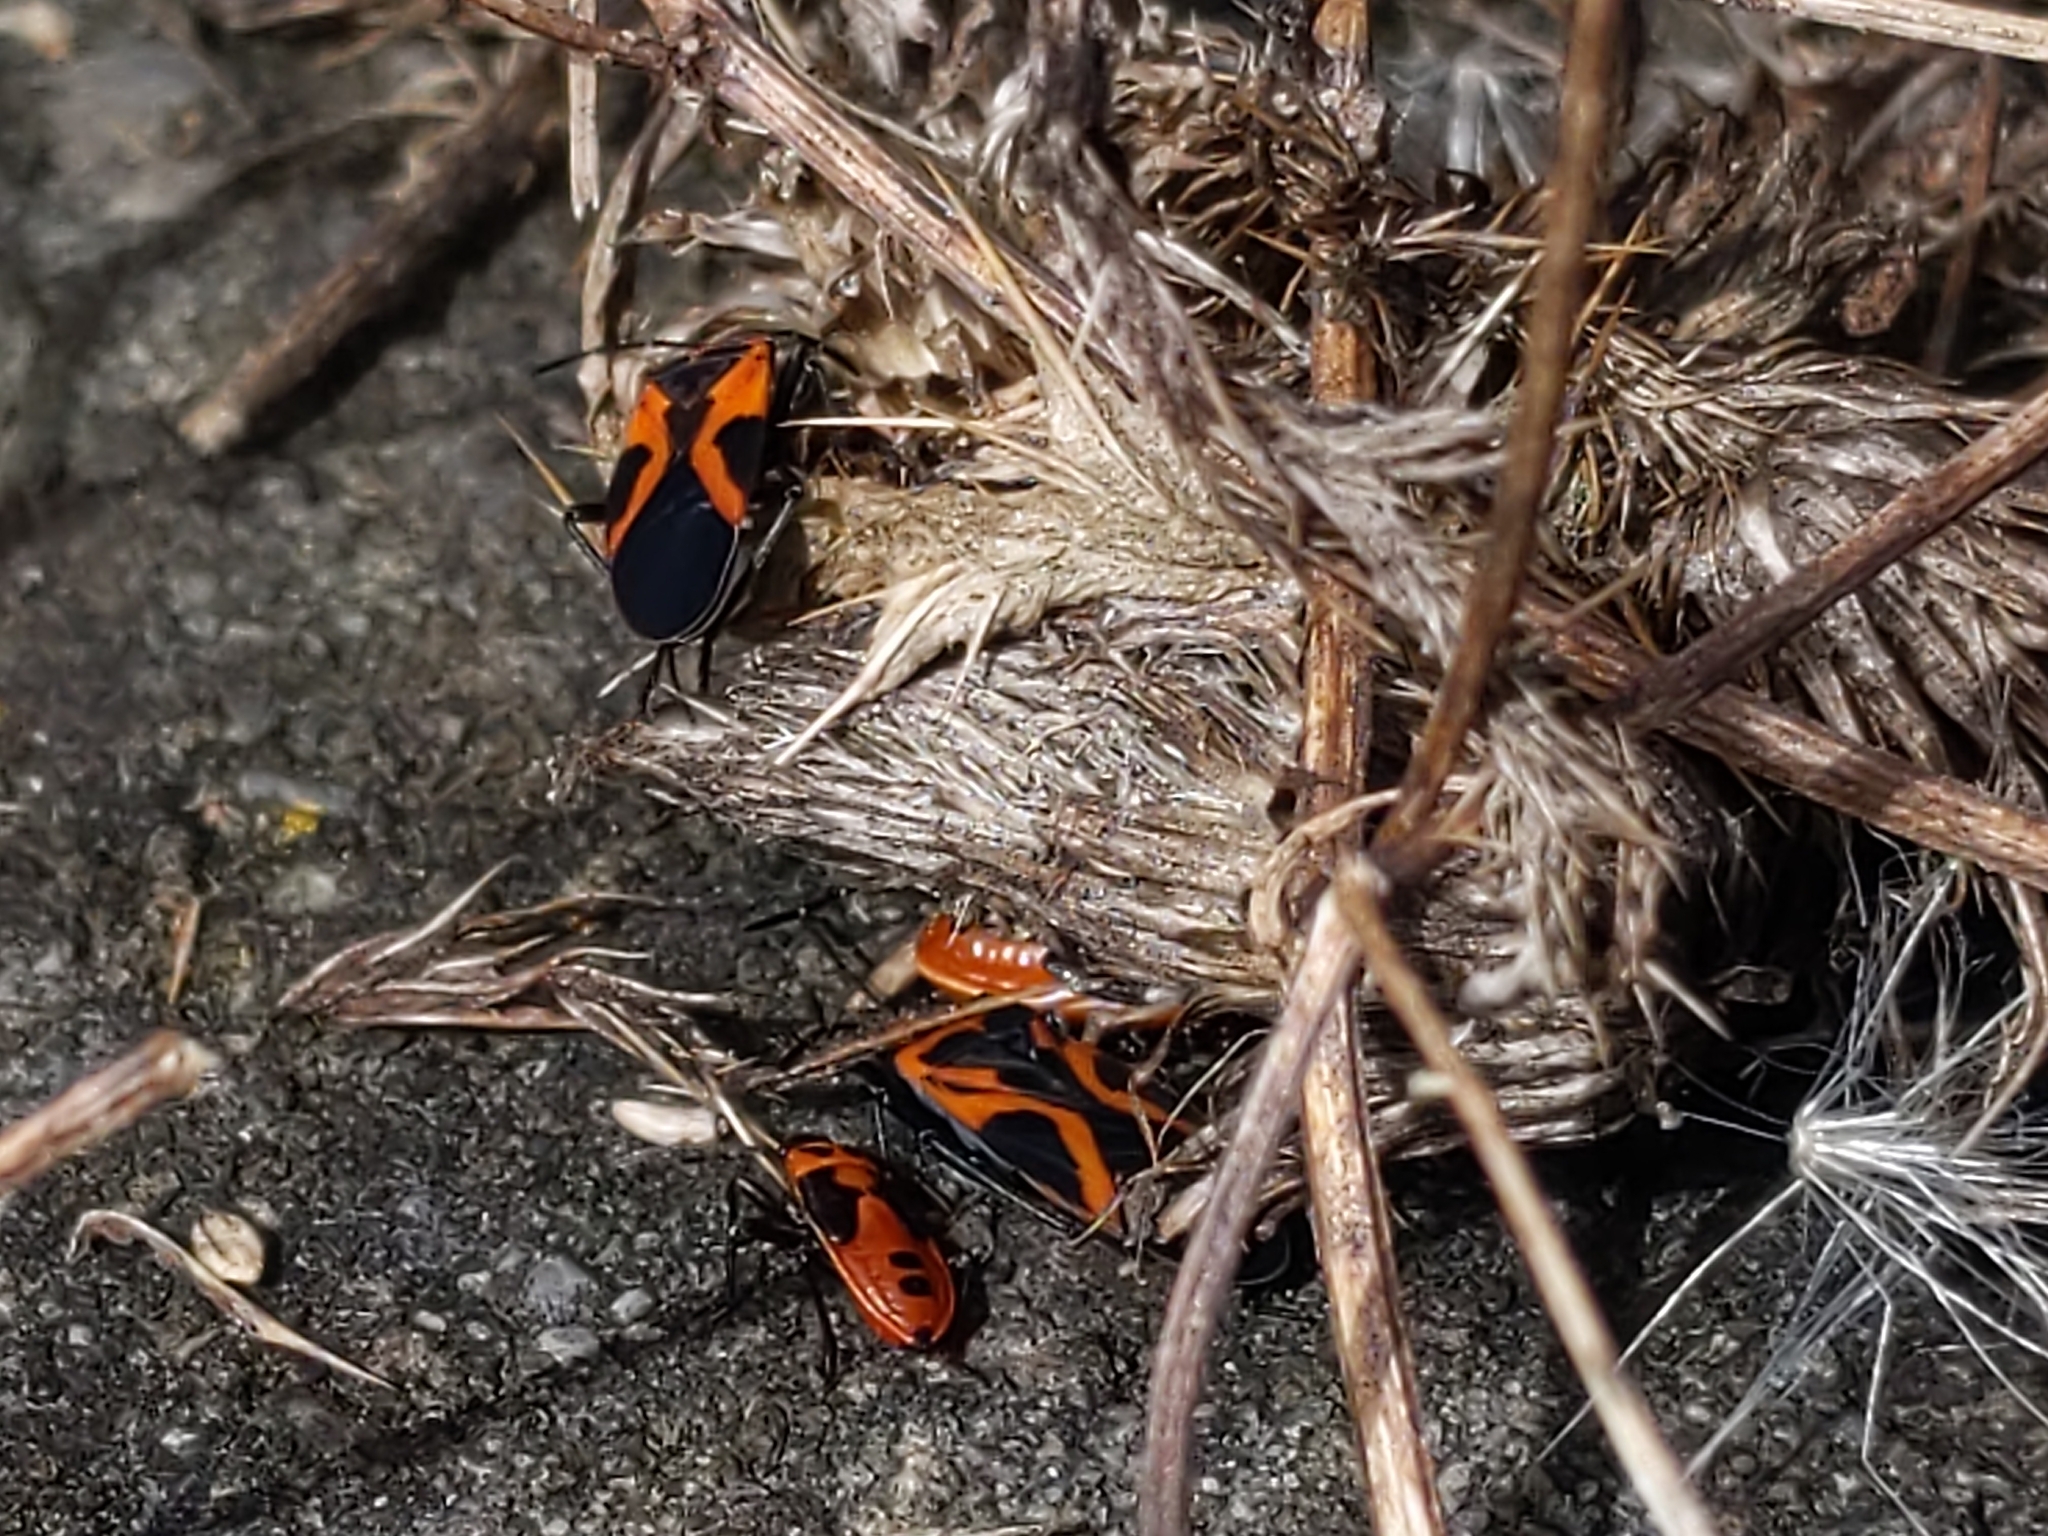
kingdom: Animalia
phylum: Arthropoda
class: Insecta
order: Hemiptera
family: Lygaeidae
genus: Lygaeus
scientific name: Lygaeus turcicus
